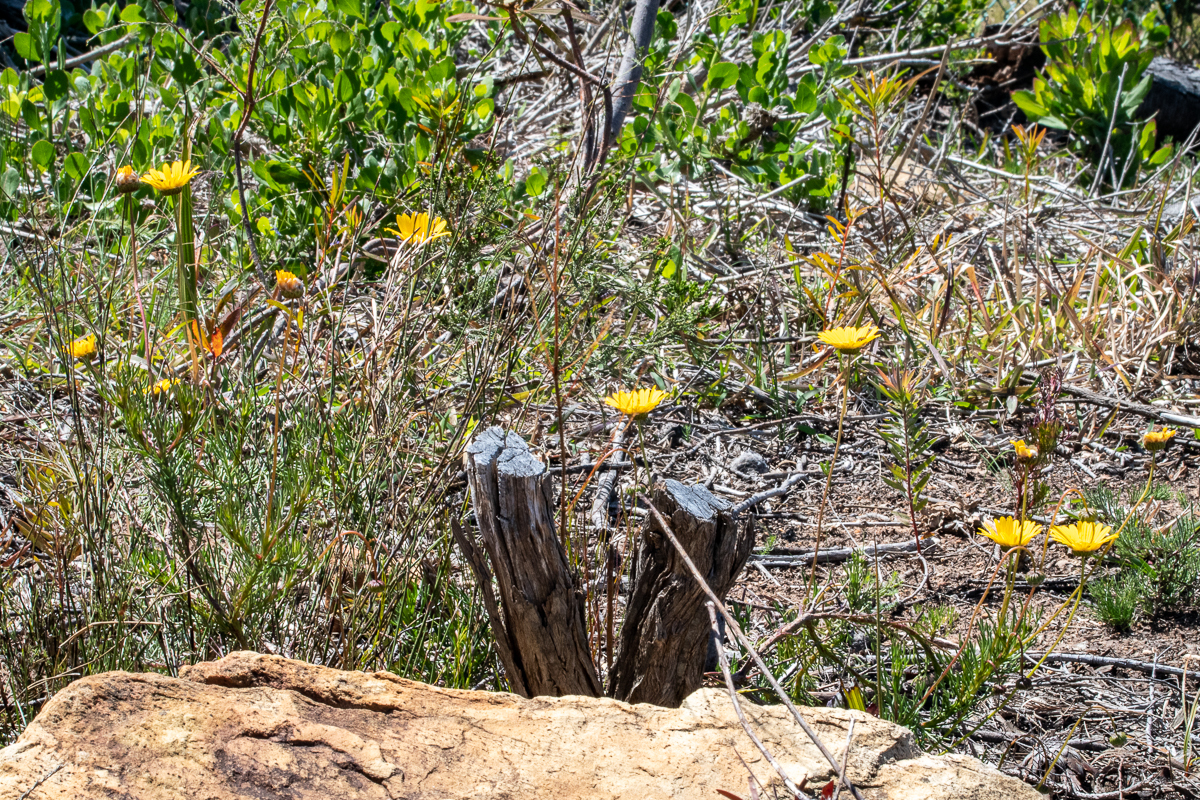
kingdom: Plantae
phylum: Tracheophyta
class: Magnoliopsida
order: Asterales
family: Asteraceae
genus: Ursinia
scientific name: Ursinia paleacea
